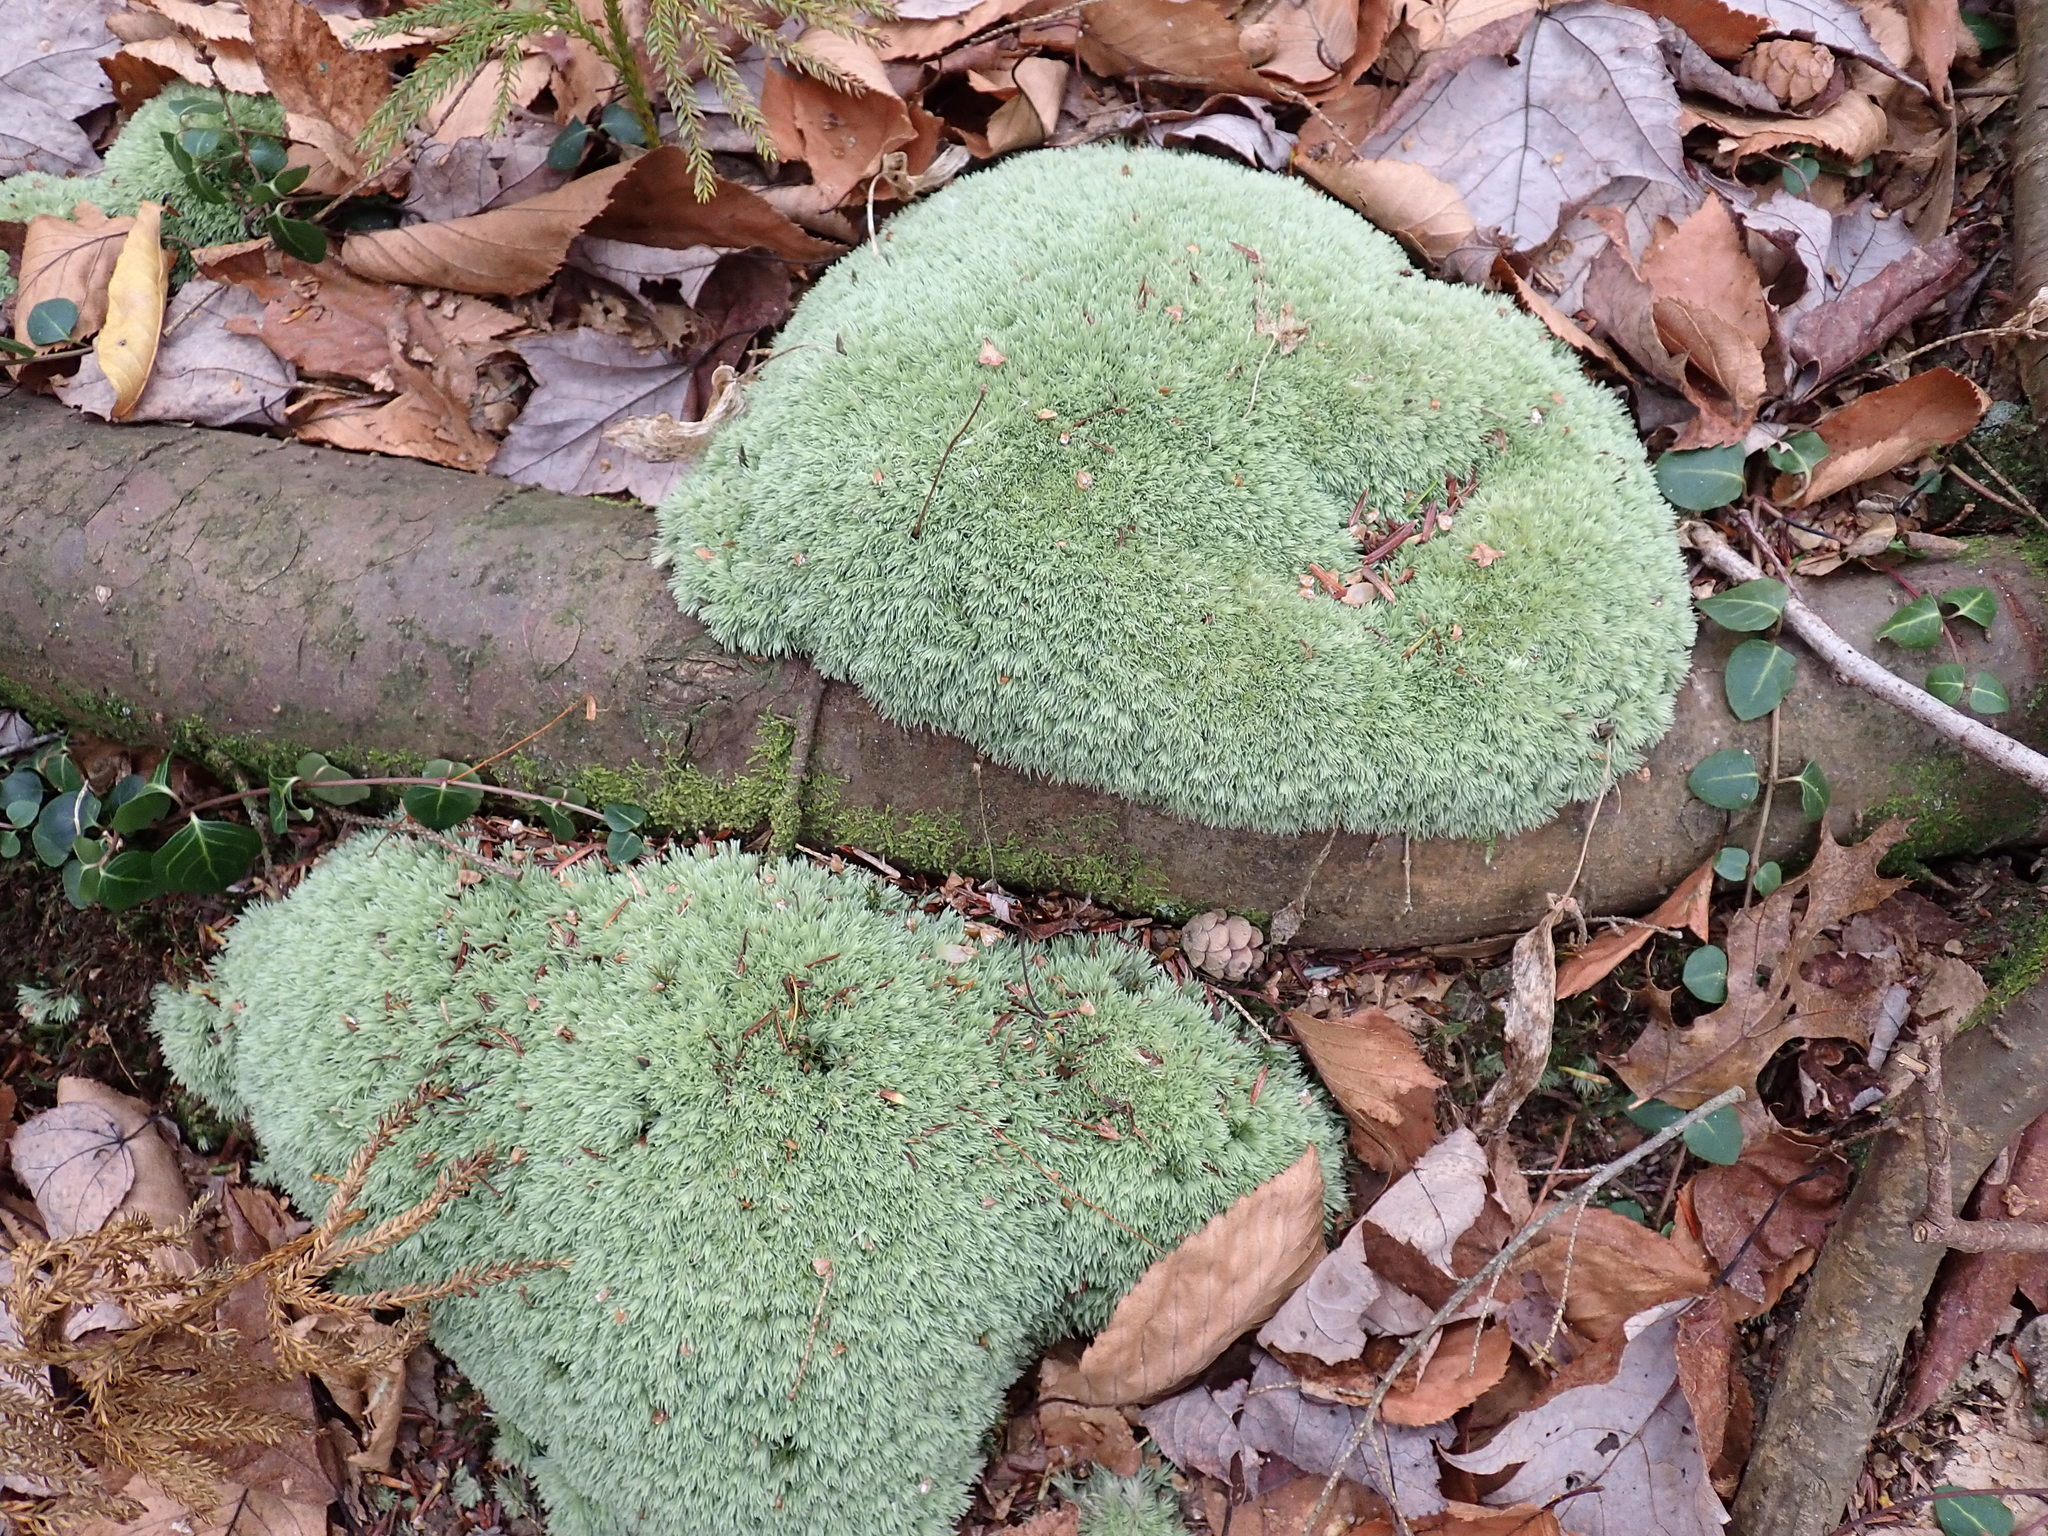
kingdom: Plantae
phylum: Bryophyta
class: Bryopsida
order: Dicranales
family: Leucobryaceae
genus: Leucobryum
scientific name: Leucobryum glaucum
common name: Large white-moss
